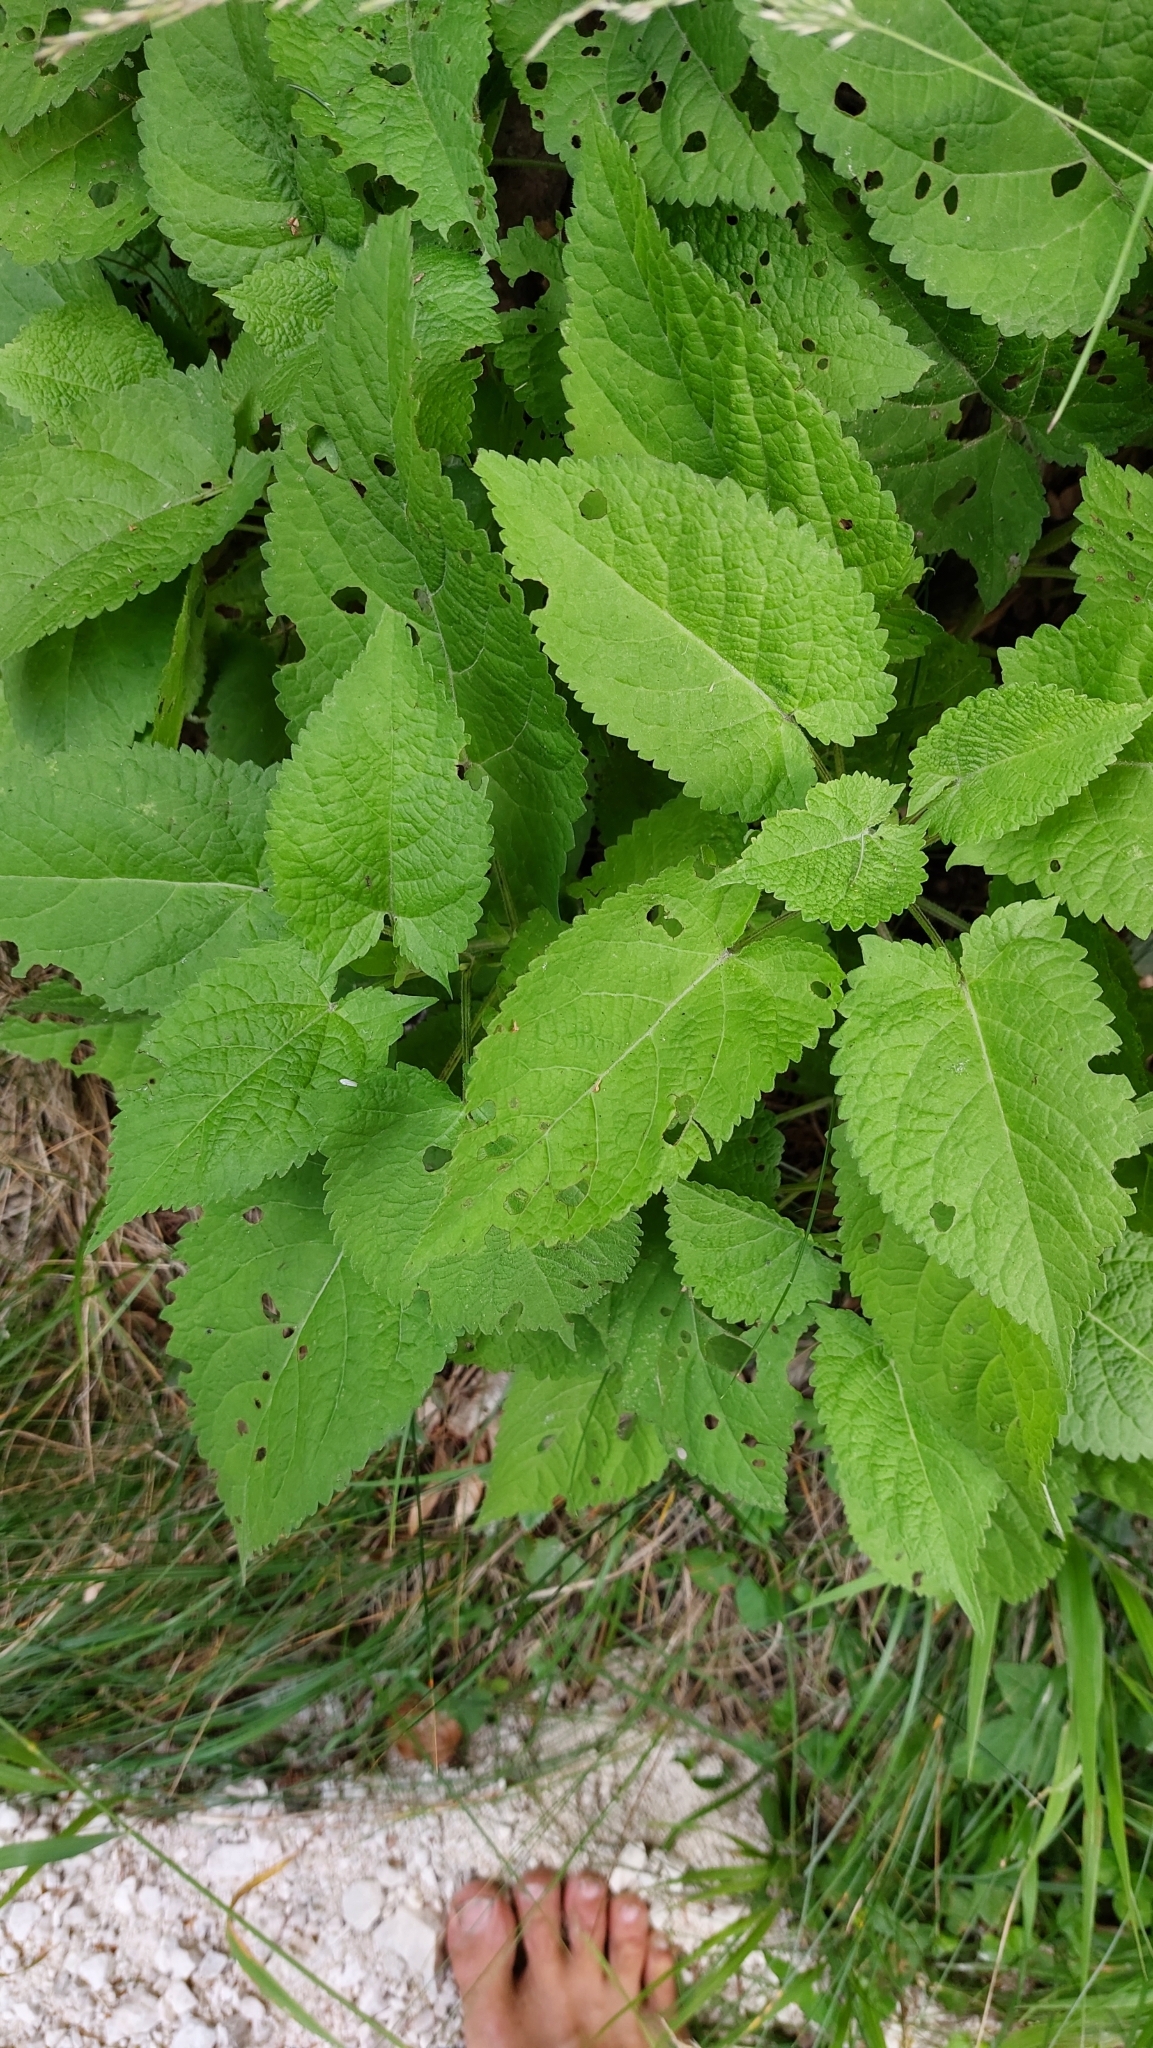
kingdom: Plantae
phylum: Tracheophyta
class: Magnoliopsida
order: Lamiales
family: Lamiaceae
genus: Salvia
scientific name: Salvia glutinosa
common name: Sticky clary
